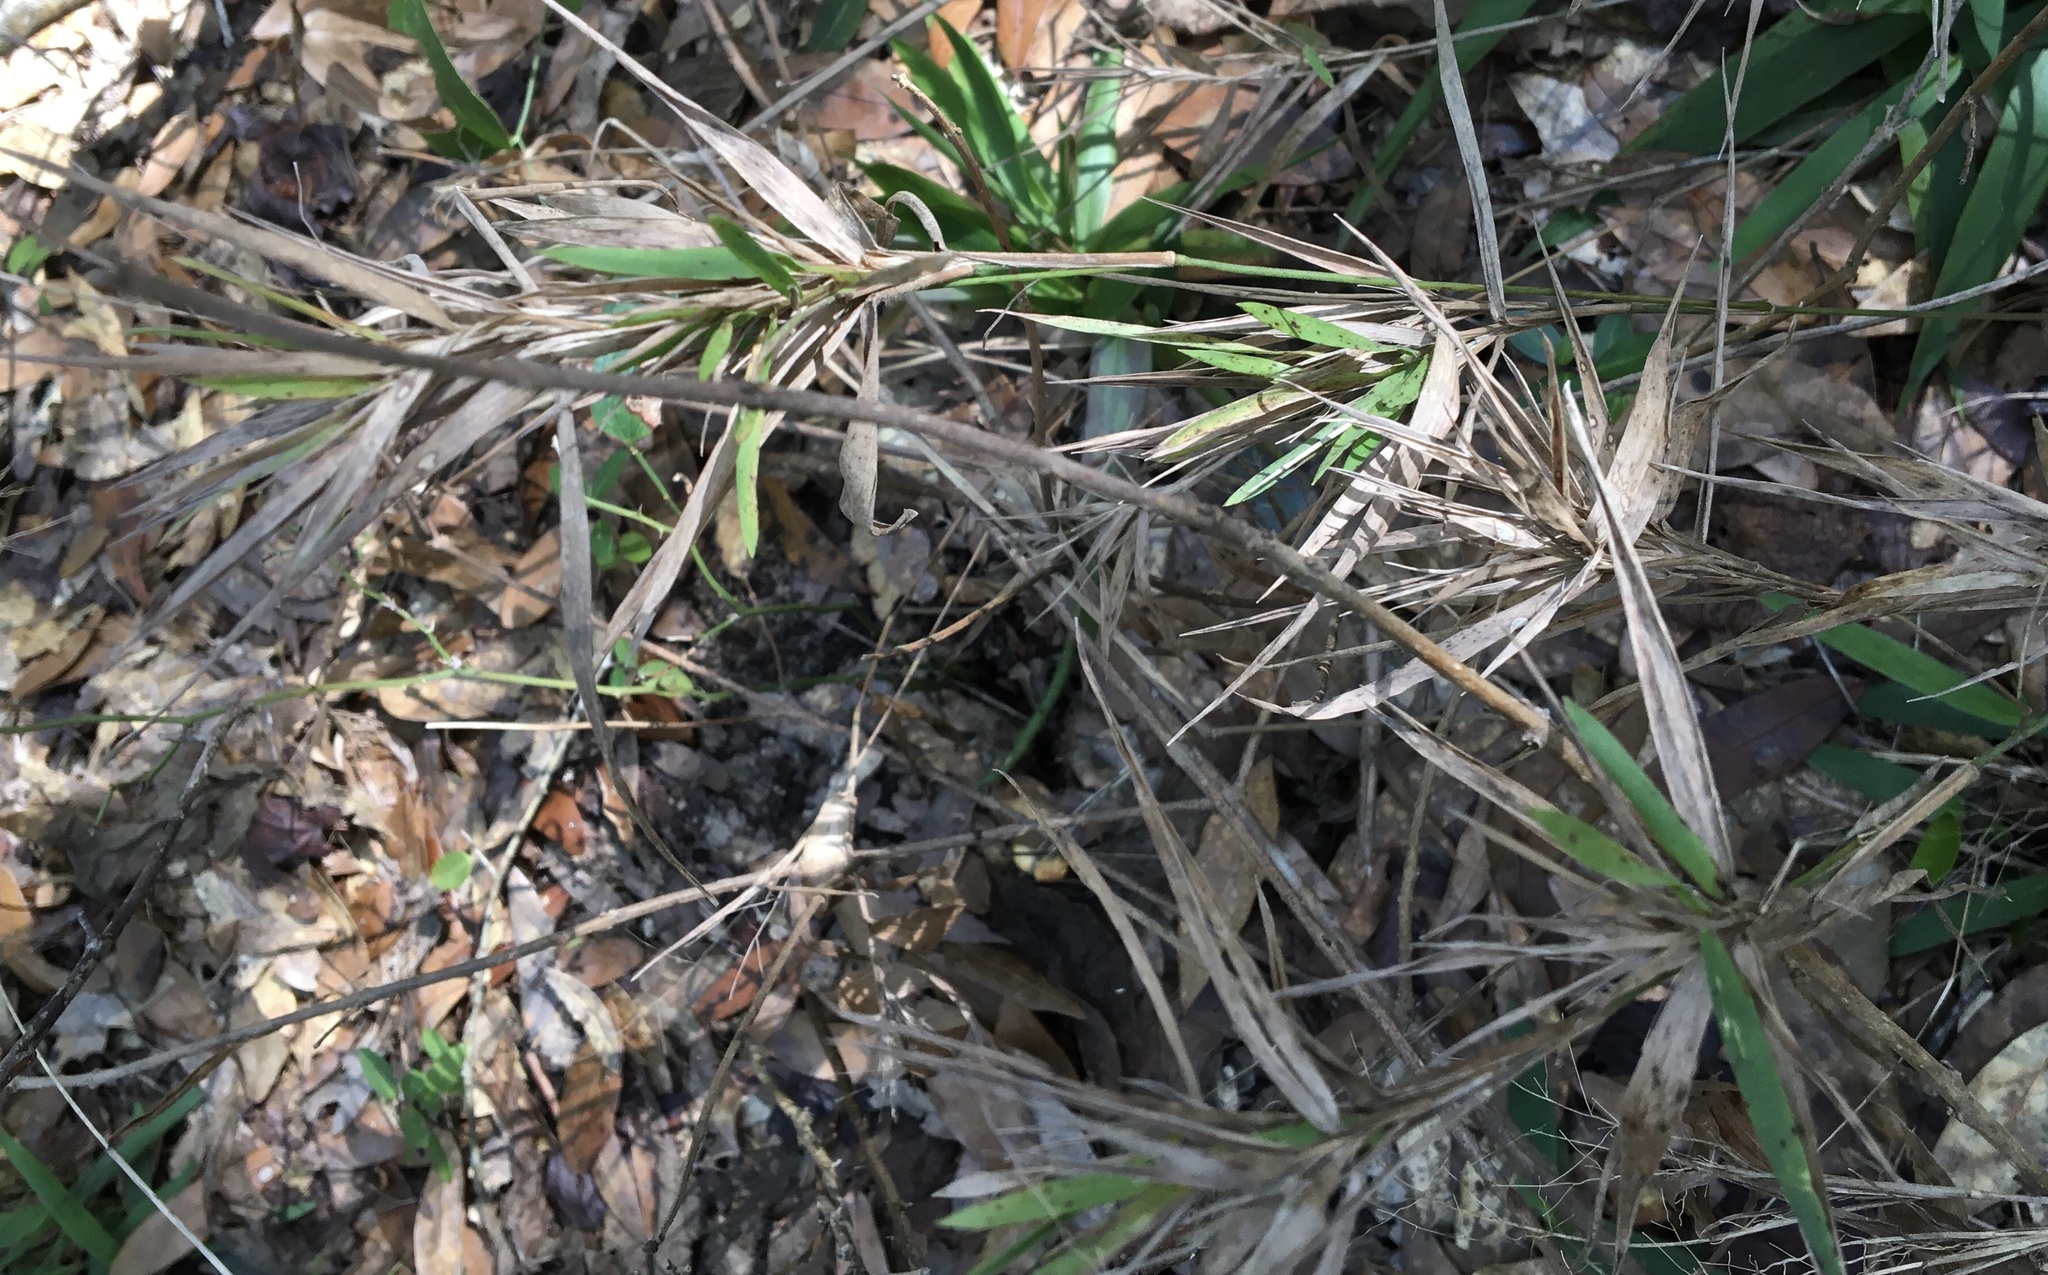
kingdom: Plantae
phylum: Tracheophyta
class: Liliopsida
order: Poales
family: Poaceae
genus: Arundinaria
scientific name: Arundinaria tecta
